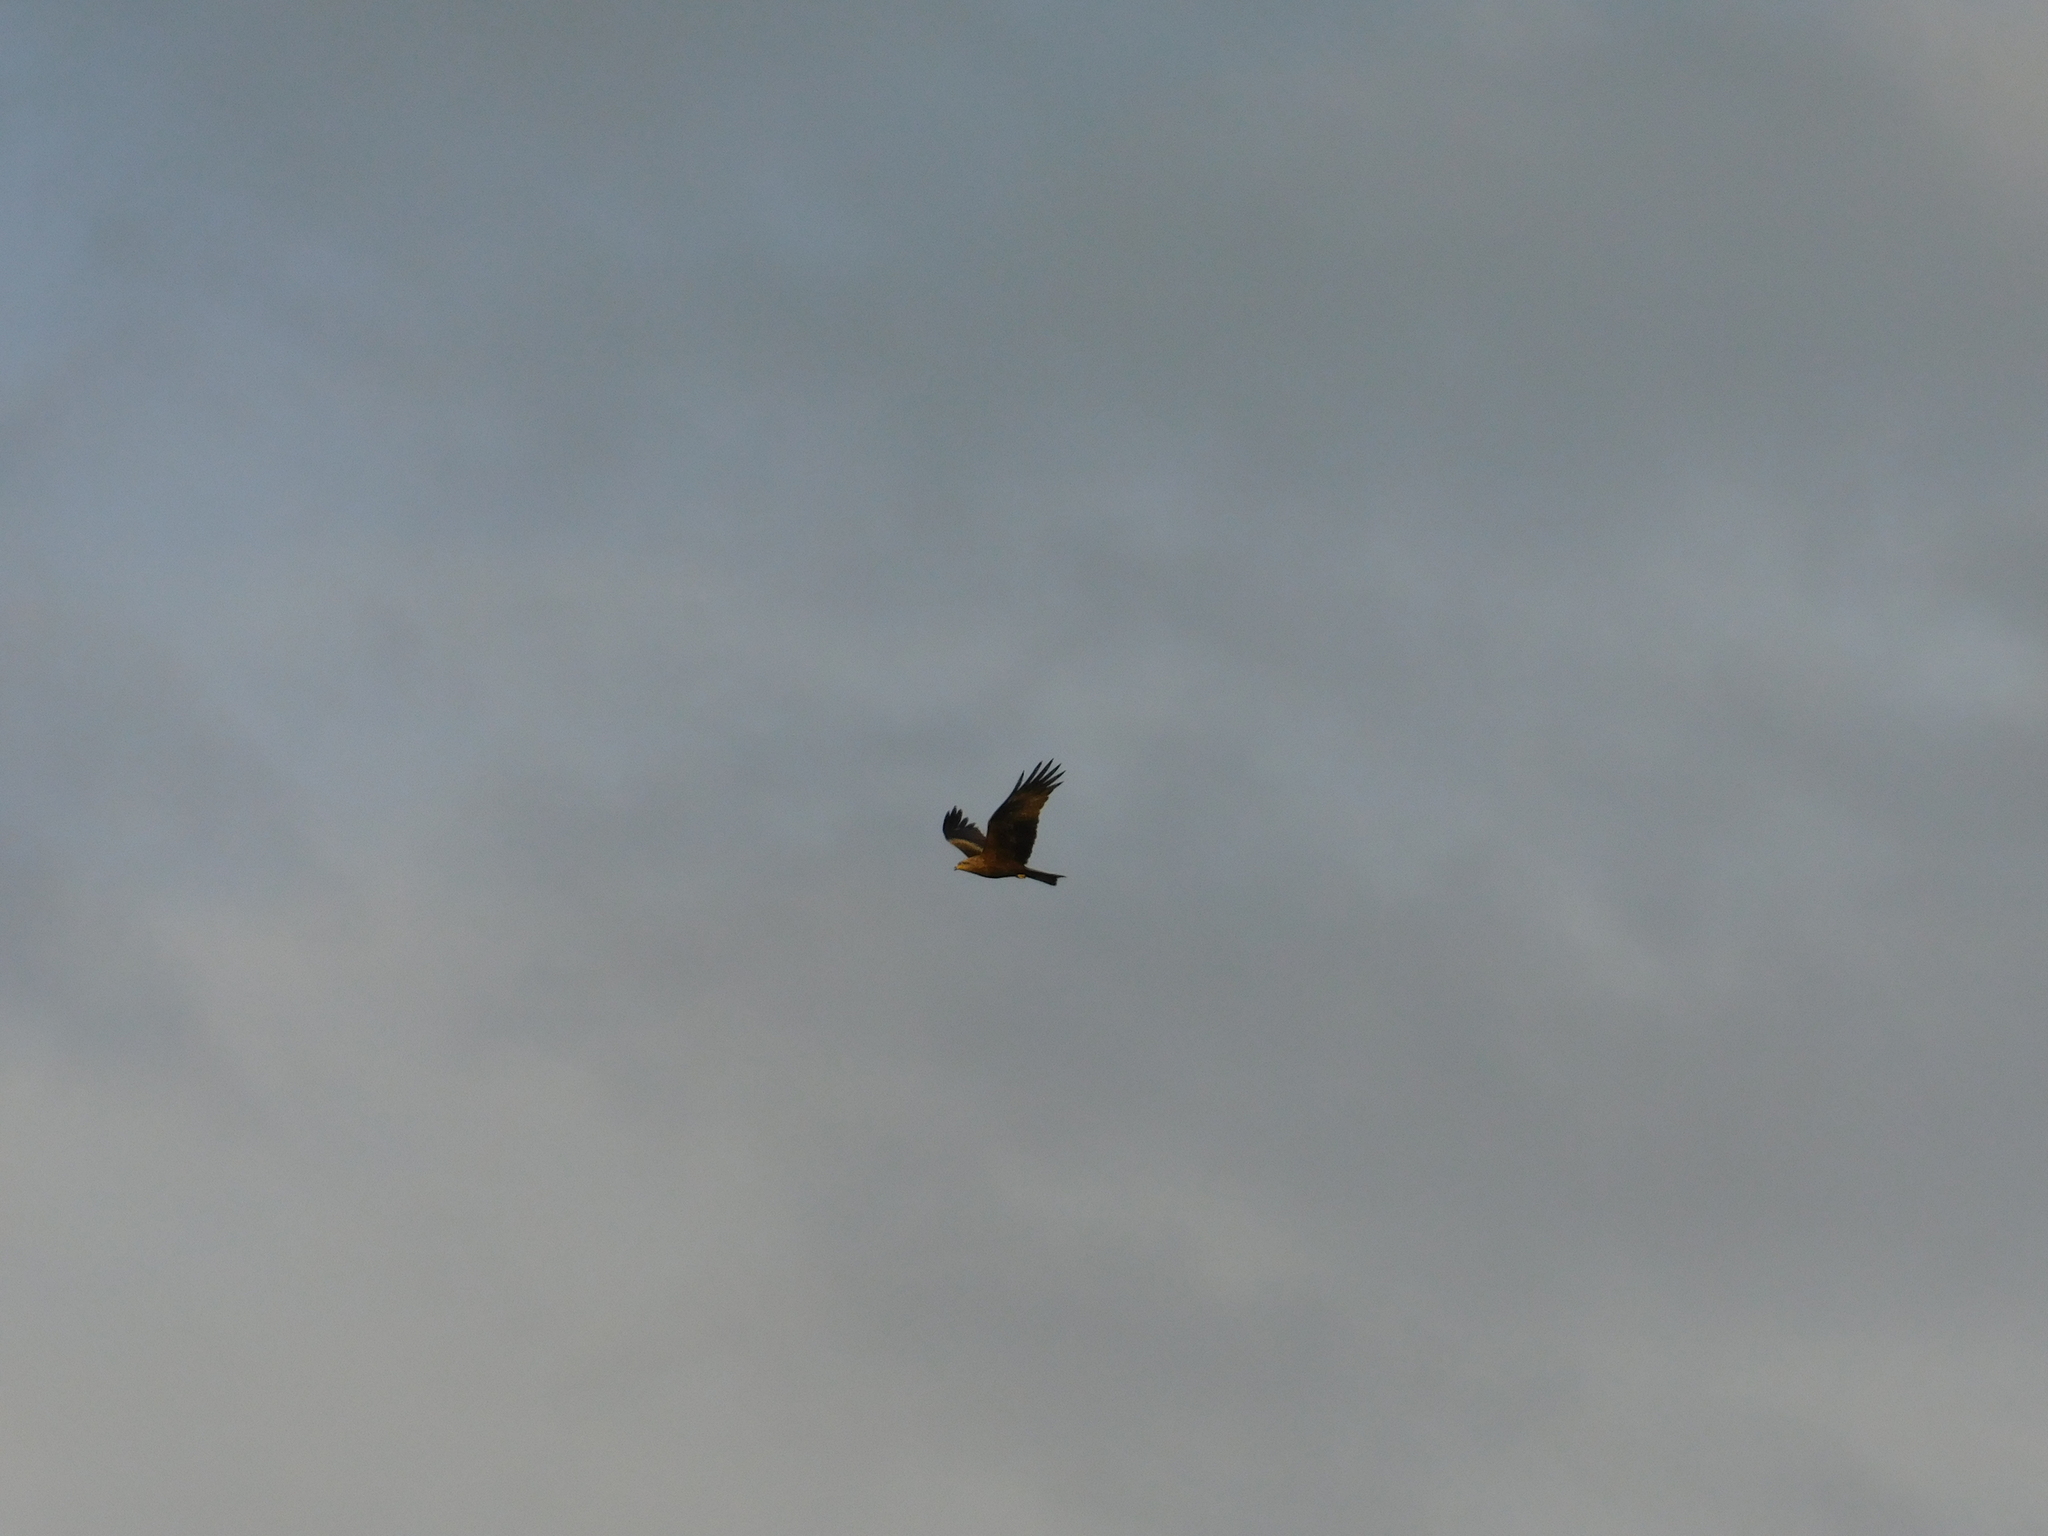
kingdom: Animalia
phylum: Chordata
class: Aves
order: Accipitriformes
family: Accipitridae
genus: Milvus
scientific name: Milvus migrans
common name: Black kite
